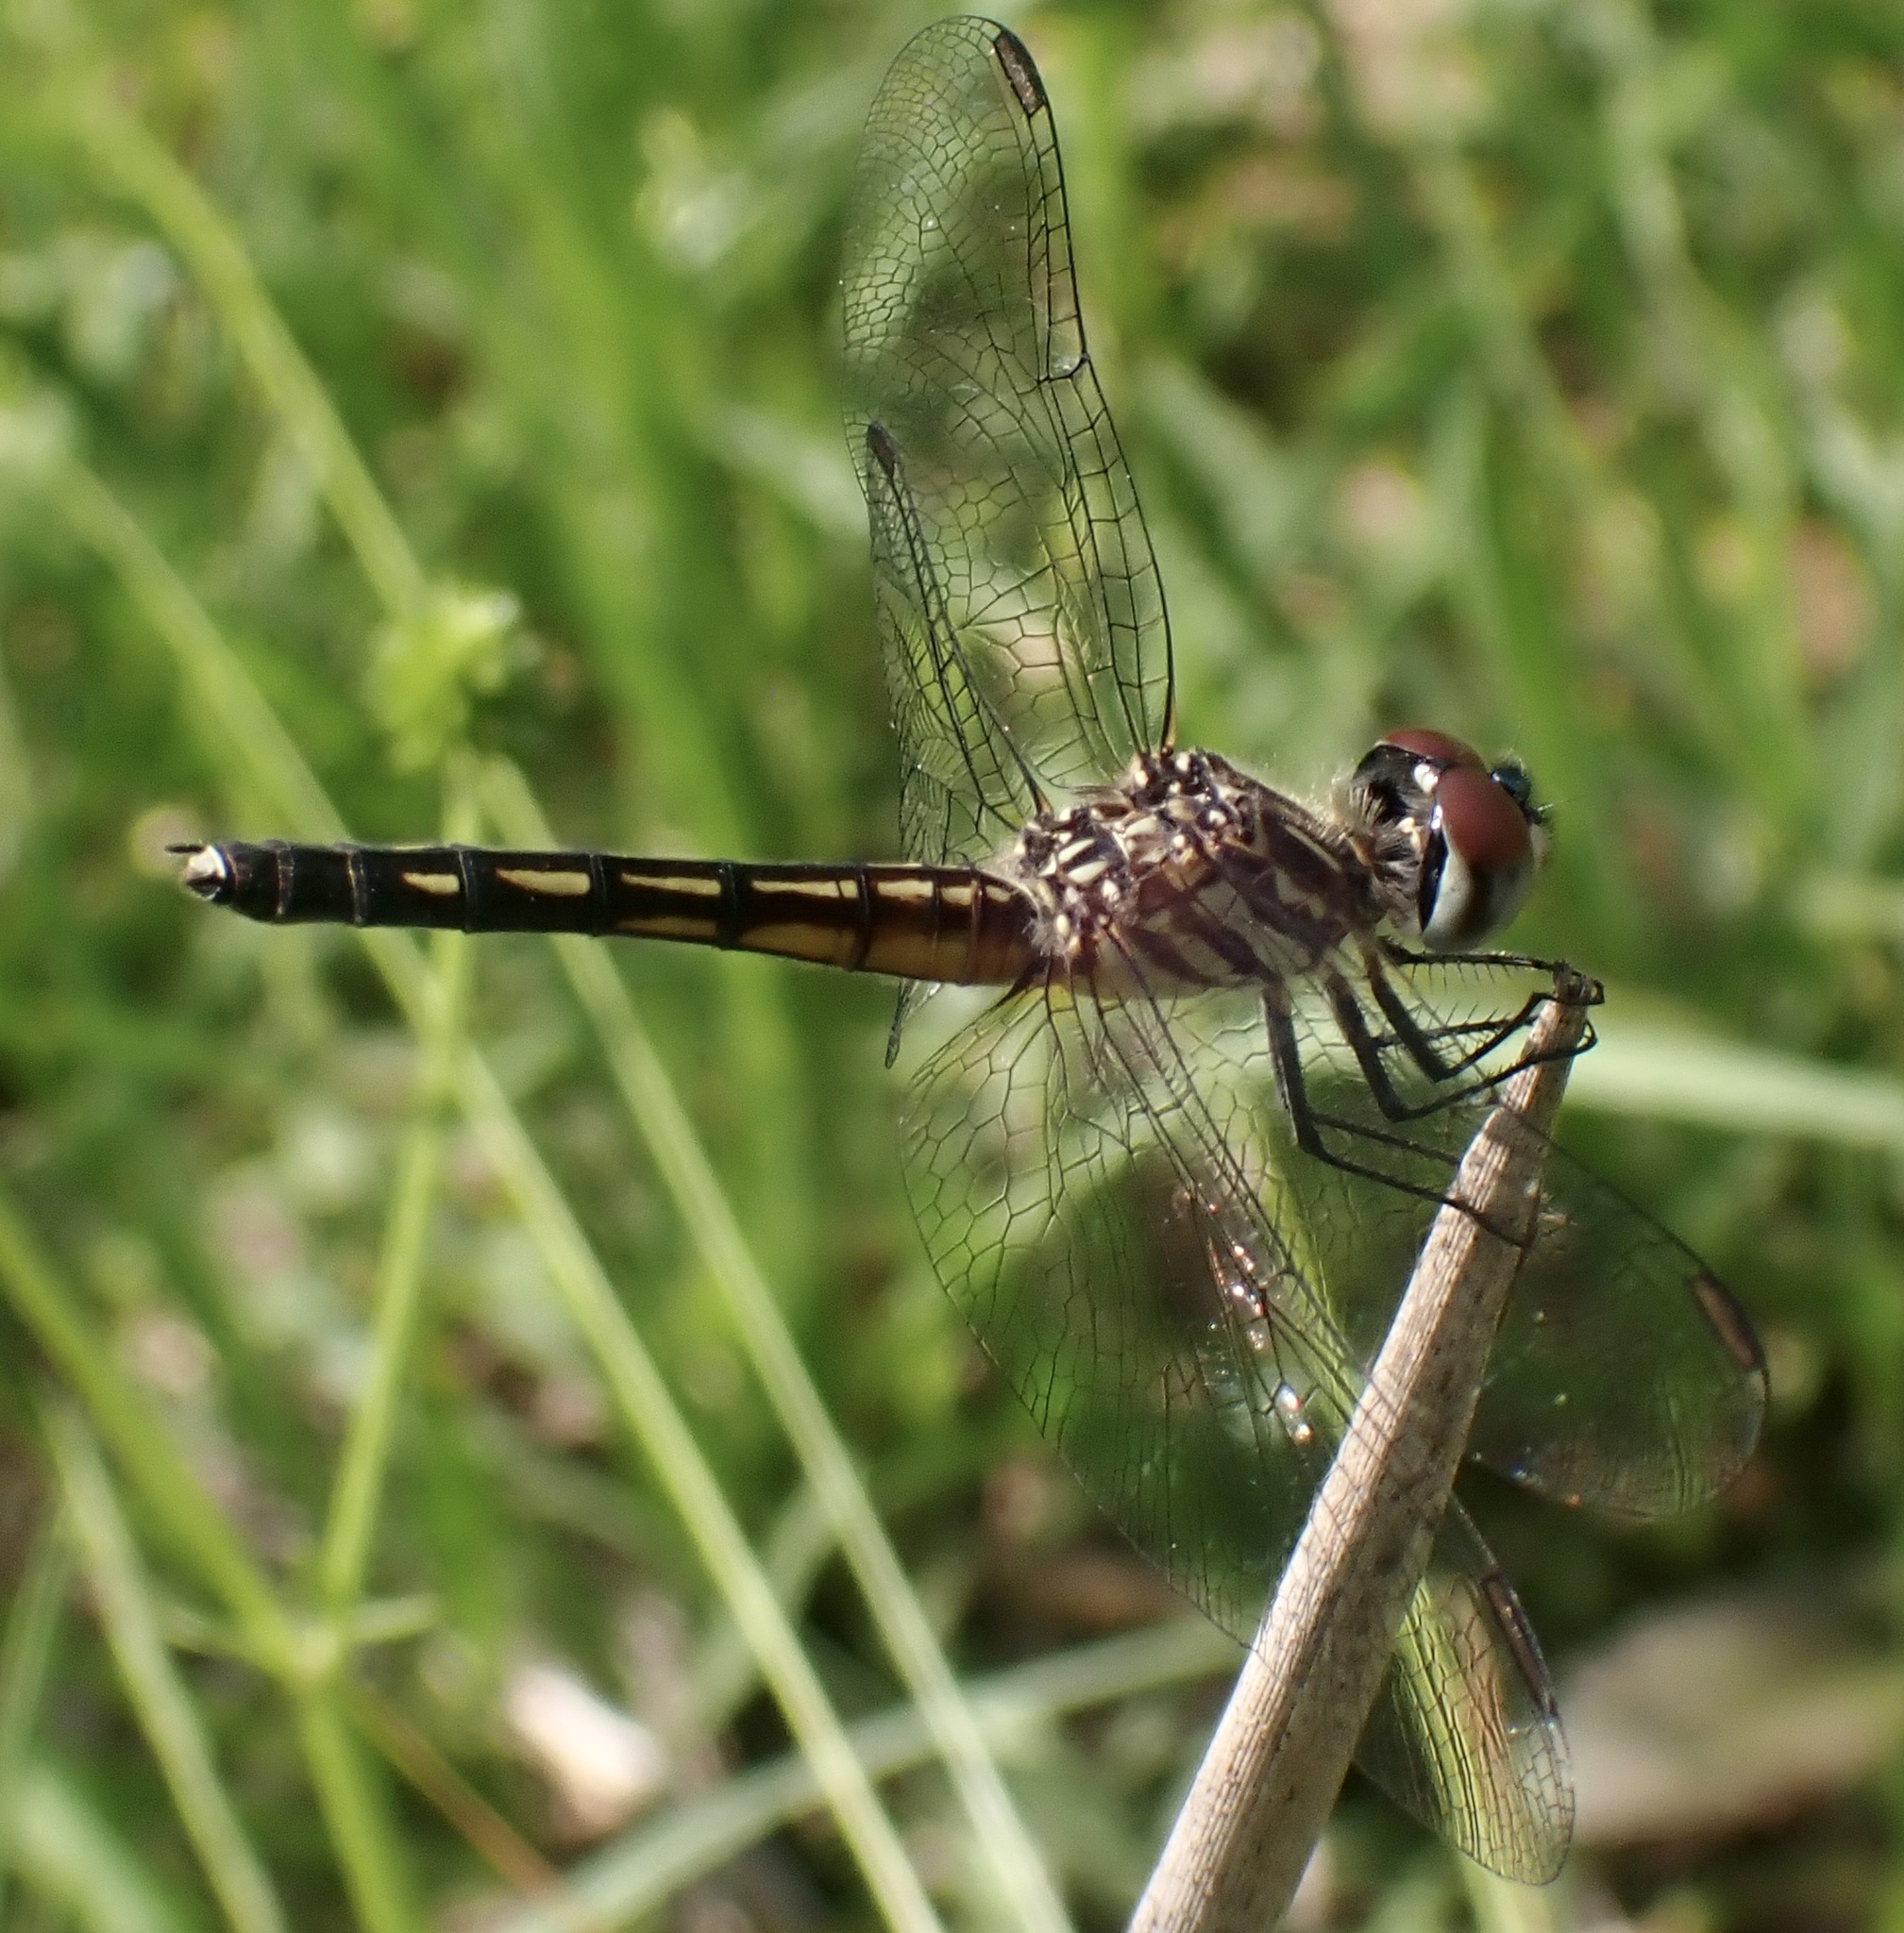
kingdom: Animalia
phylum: Arthropoda
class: Insecta
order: Odonata
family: Libellulidae
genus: Pachydiplax
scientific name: Pachydiplax longipennis
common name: Blue dasher
